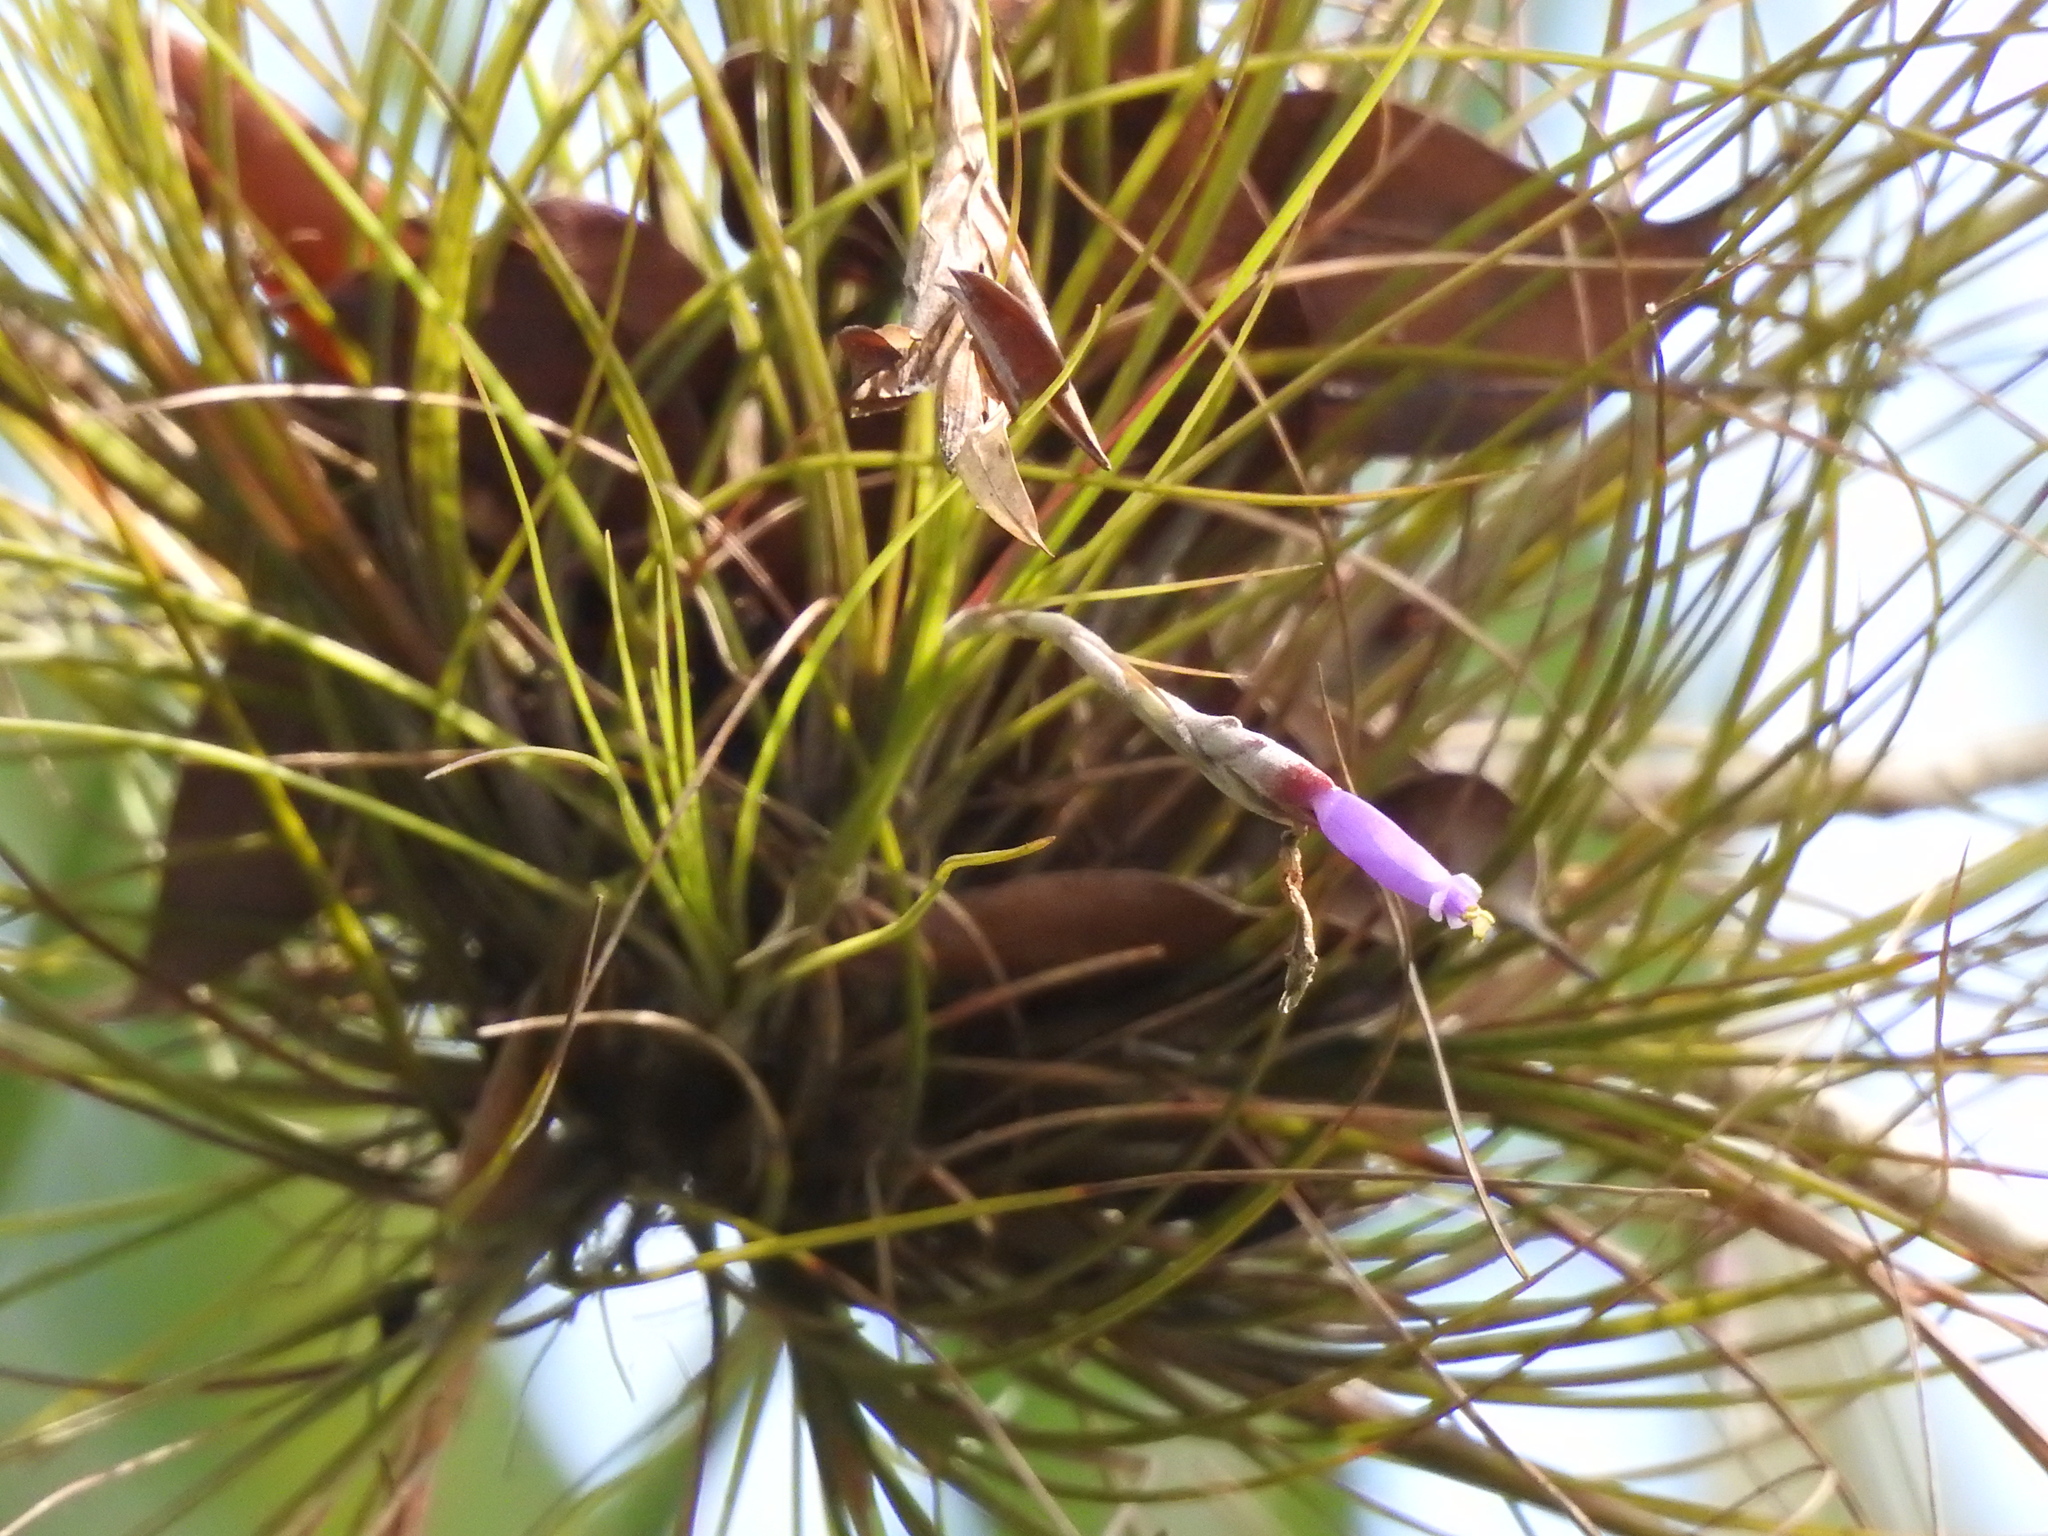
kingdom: Plantae
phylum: Tracheophyta
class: Liliopsida
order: Poales
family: Bromeliaceae
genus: Tillandsia
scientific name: Tillandsia setacea
